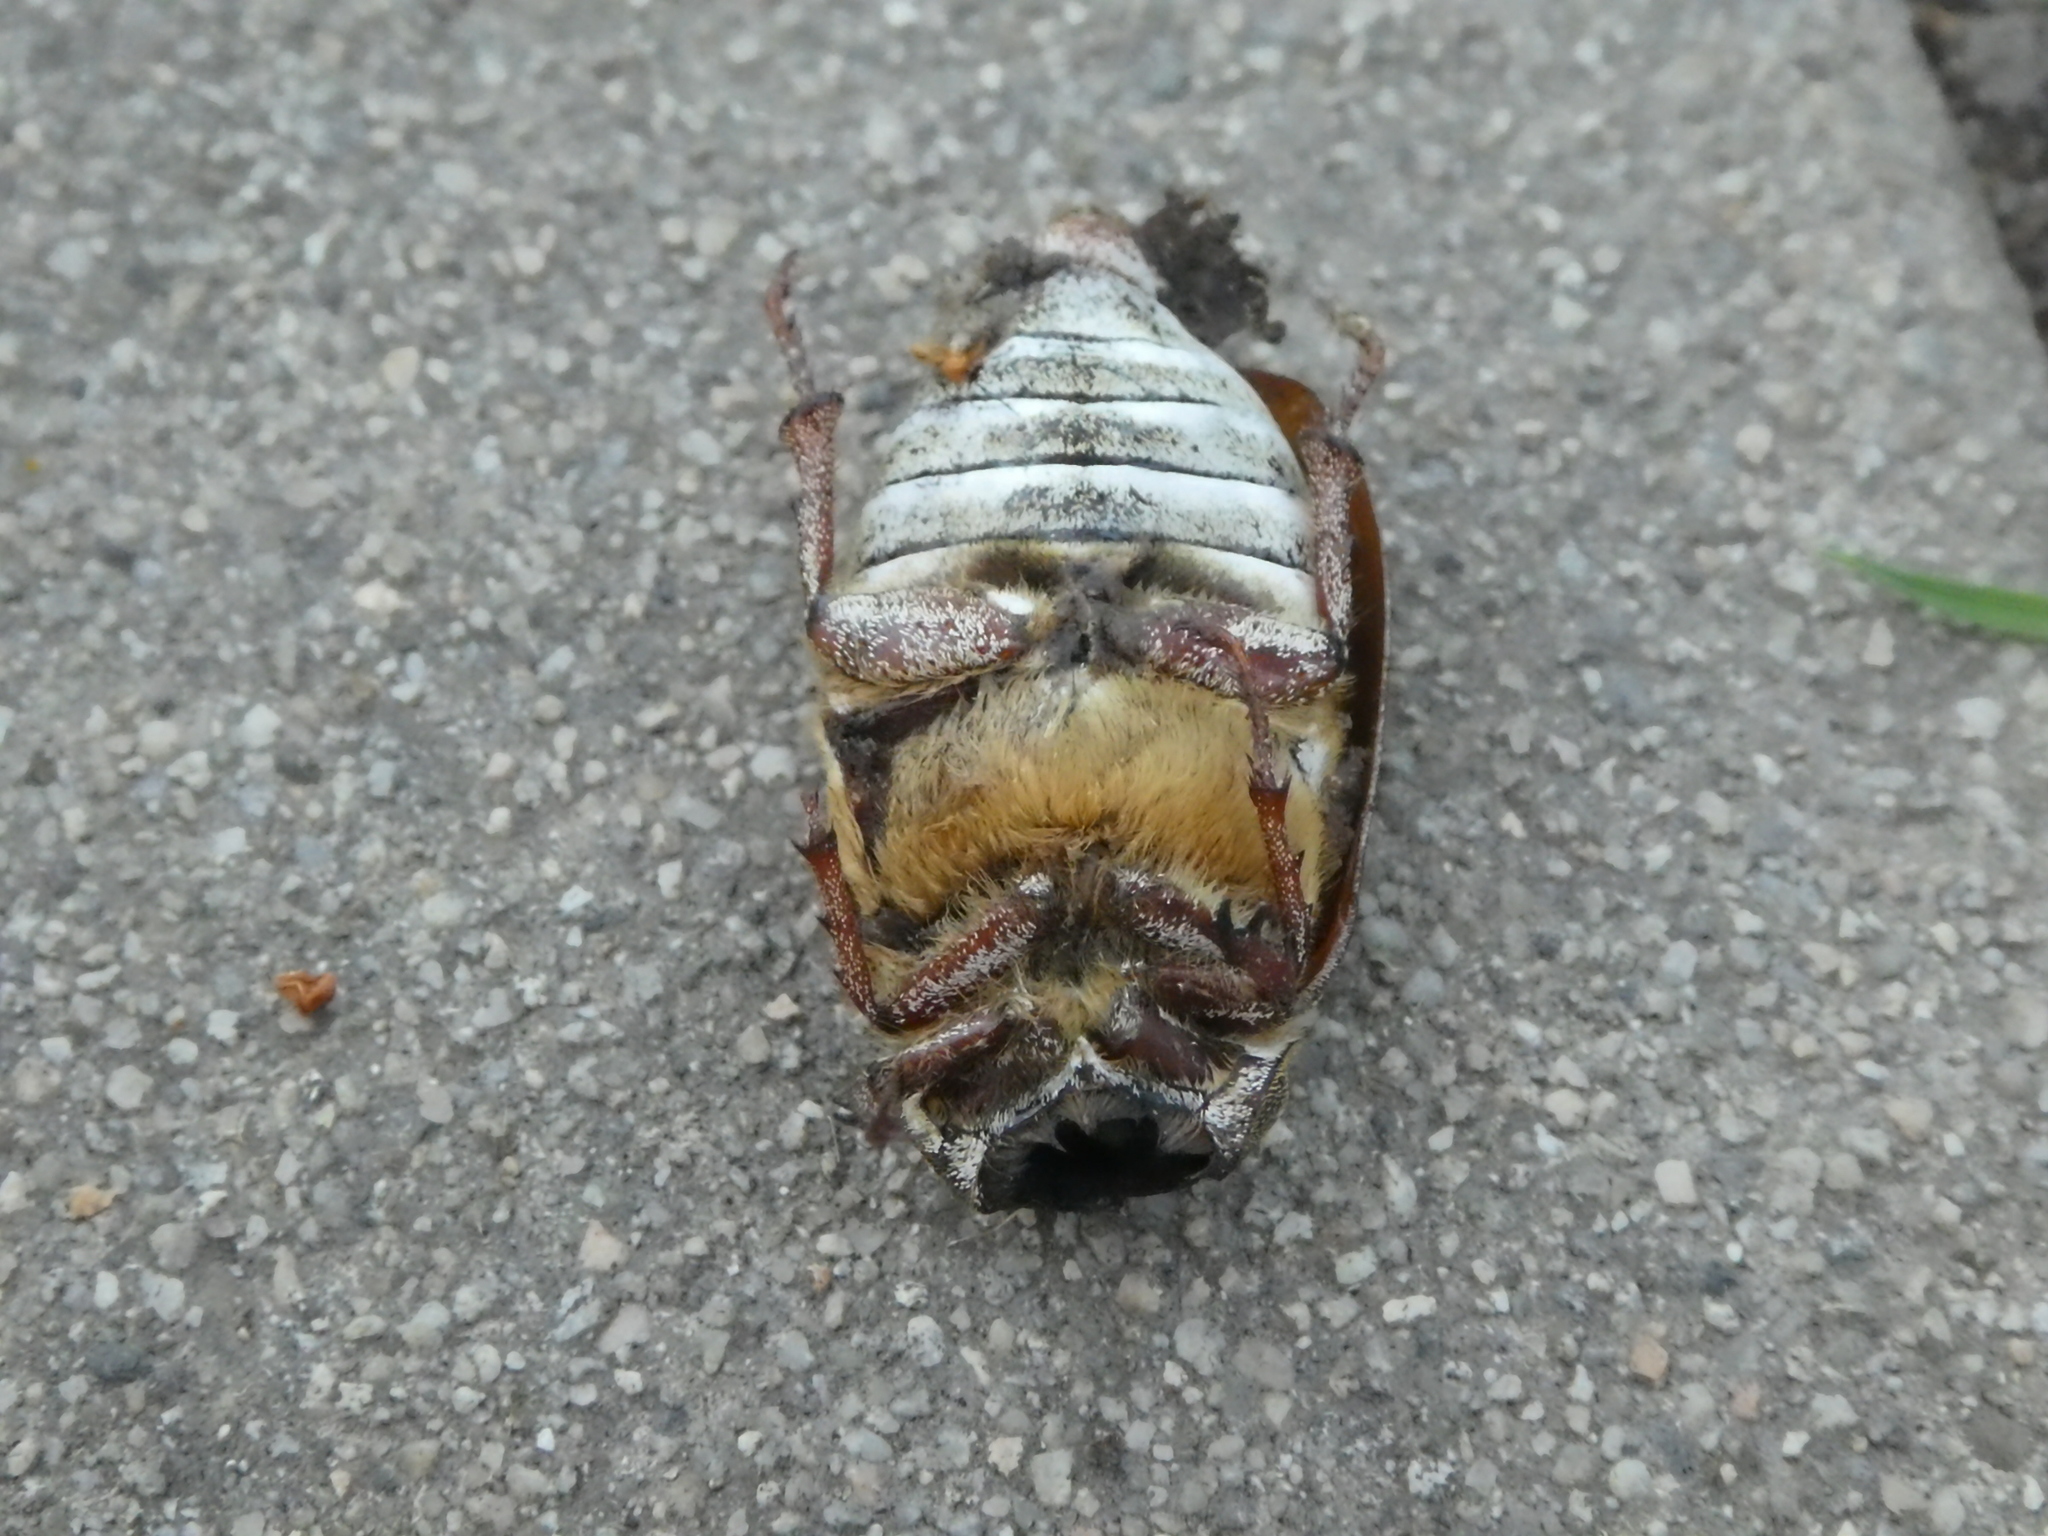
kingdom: Animalia
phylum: Arthropoda
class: Insecta
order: Coleoptera
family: Scarabaeidae
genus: Polyphylla
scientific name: Polyphylla decemlineata
